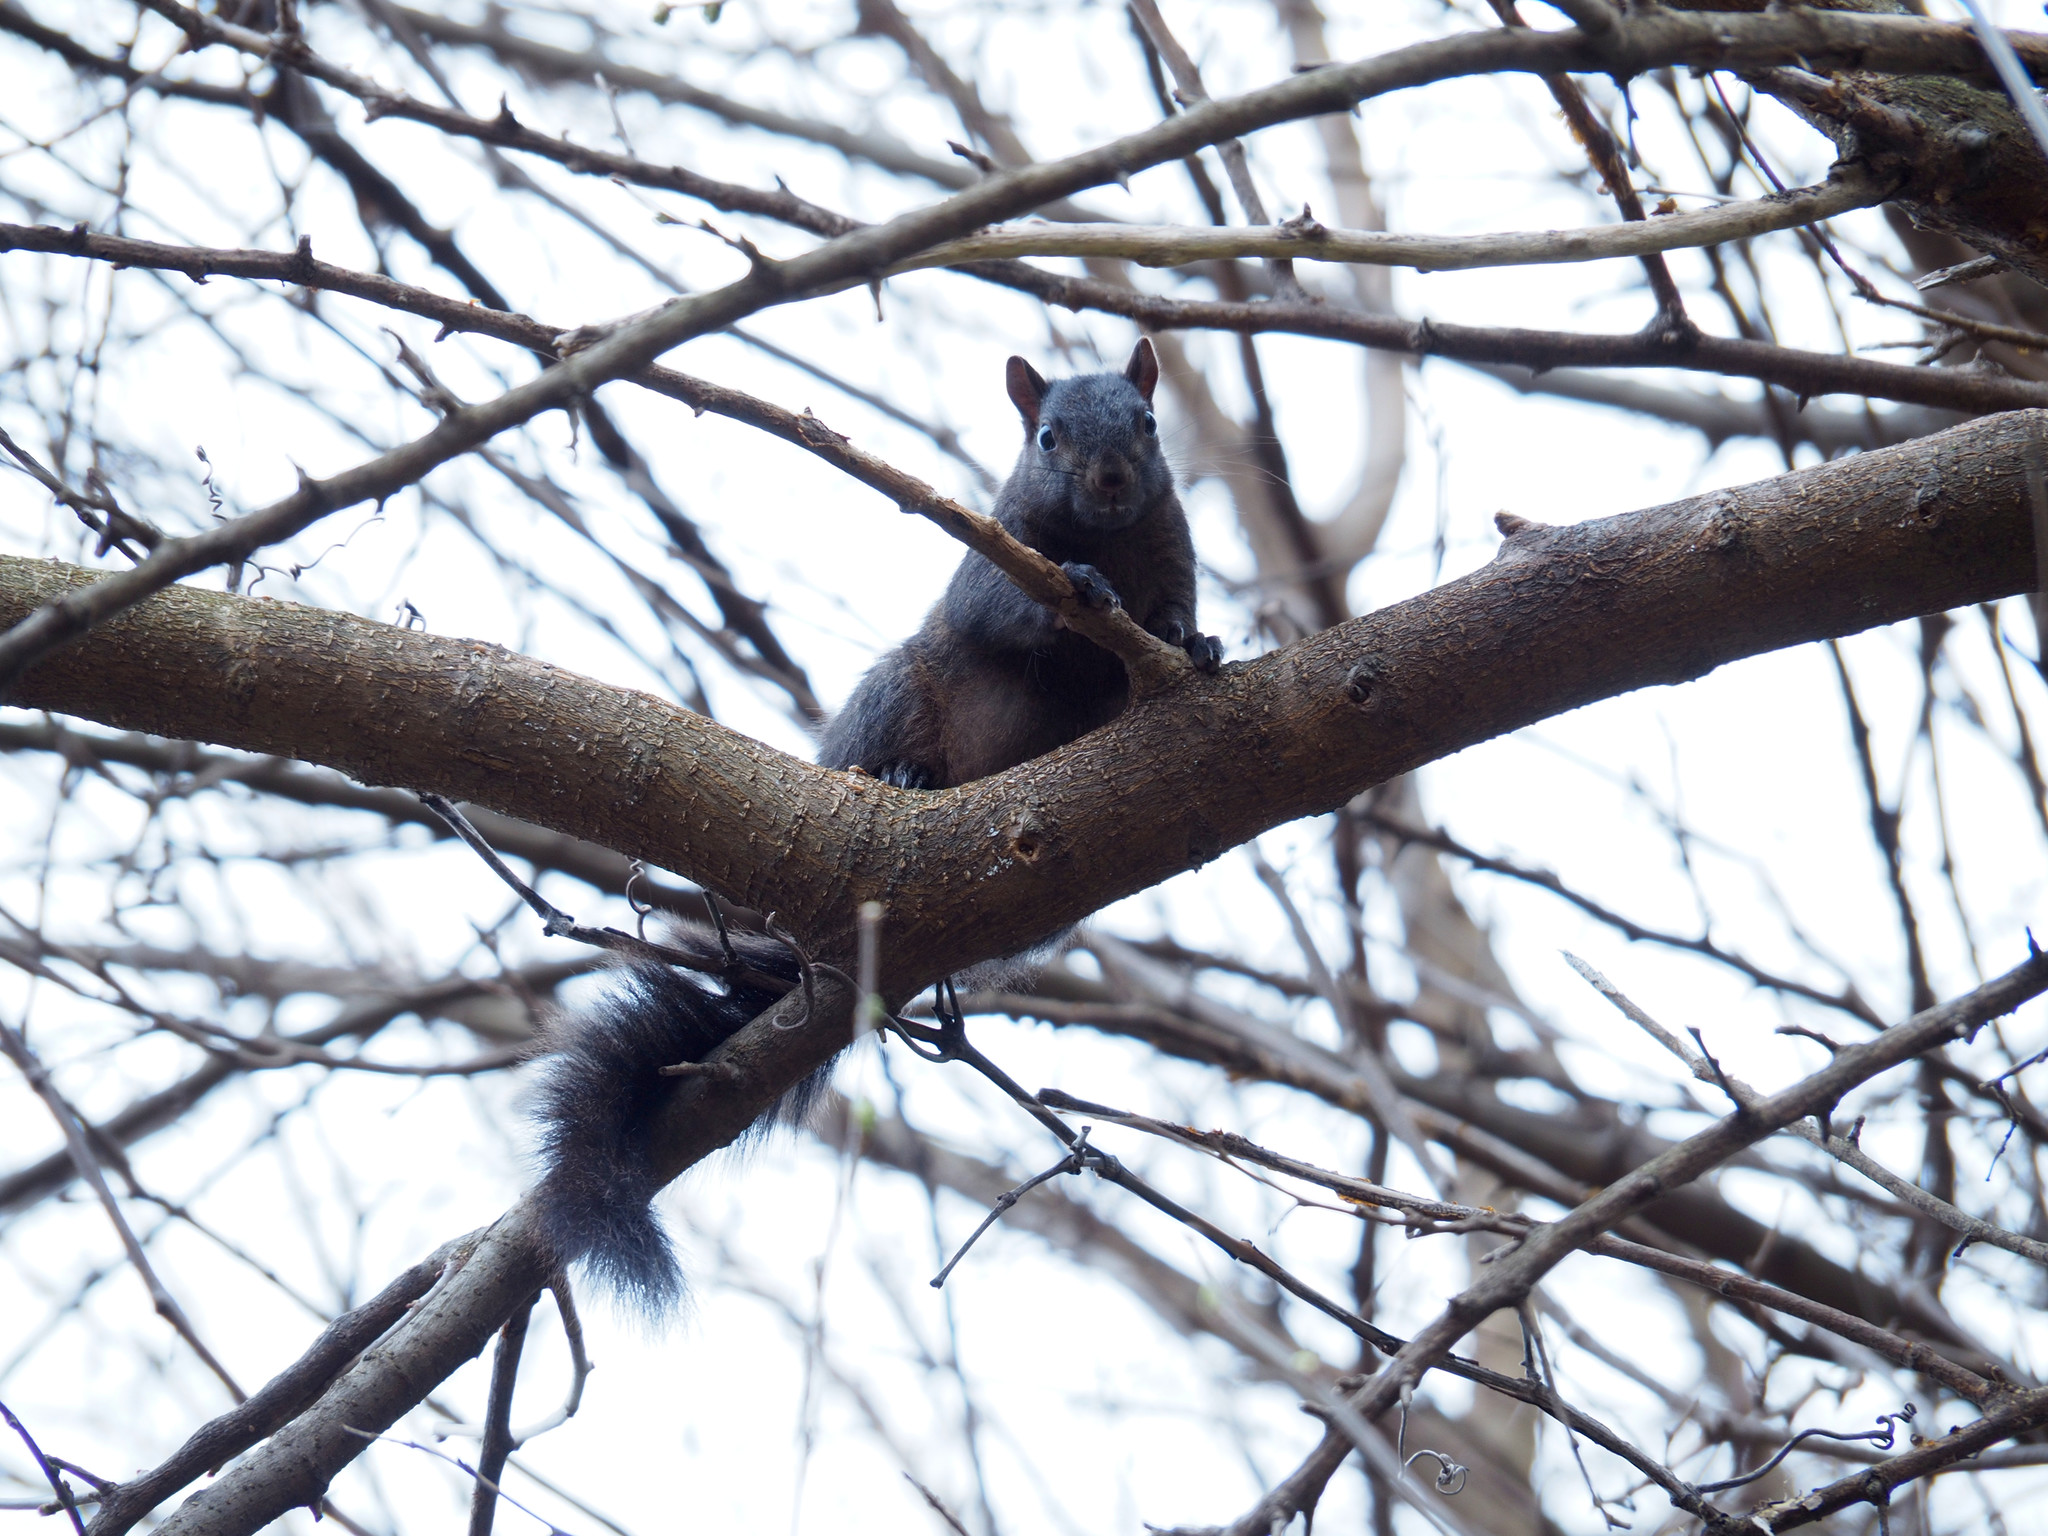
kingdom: Animalia
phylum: Chordata
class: Mammalia
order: Rodentia
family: Sciuridae
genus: Sciurus
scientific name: Sciurus carolinensis
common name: Eastern gray squirrel
